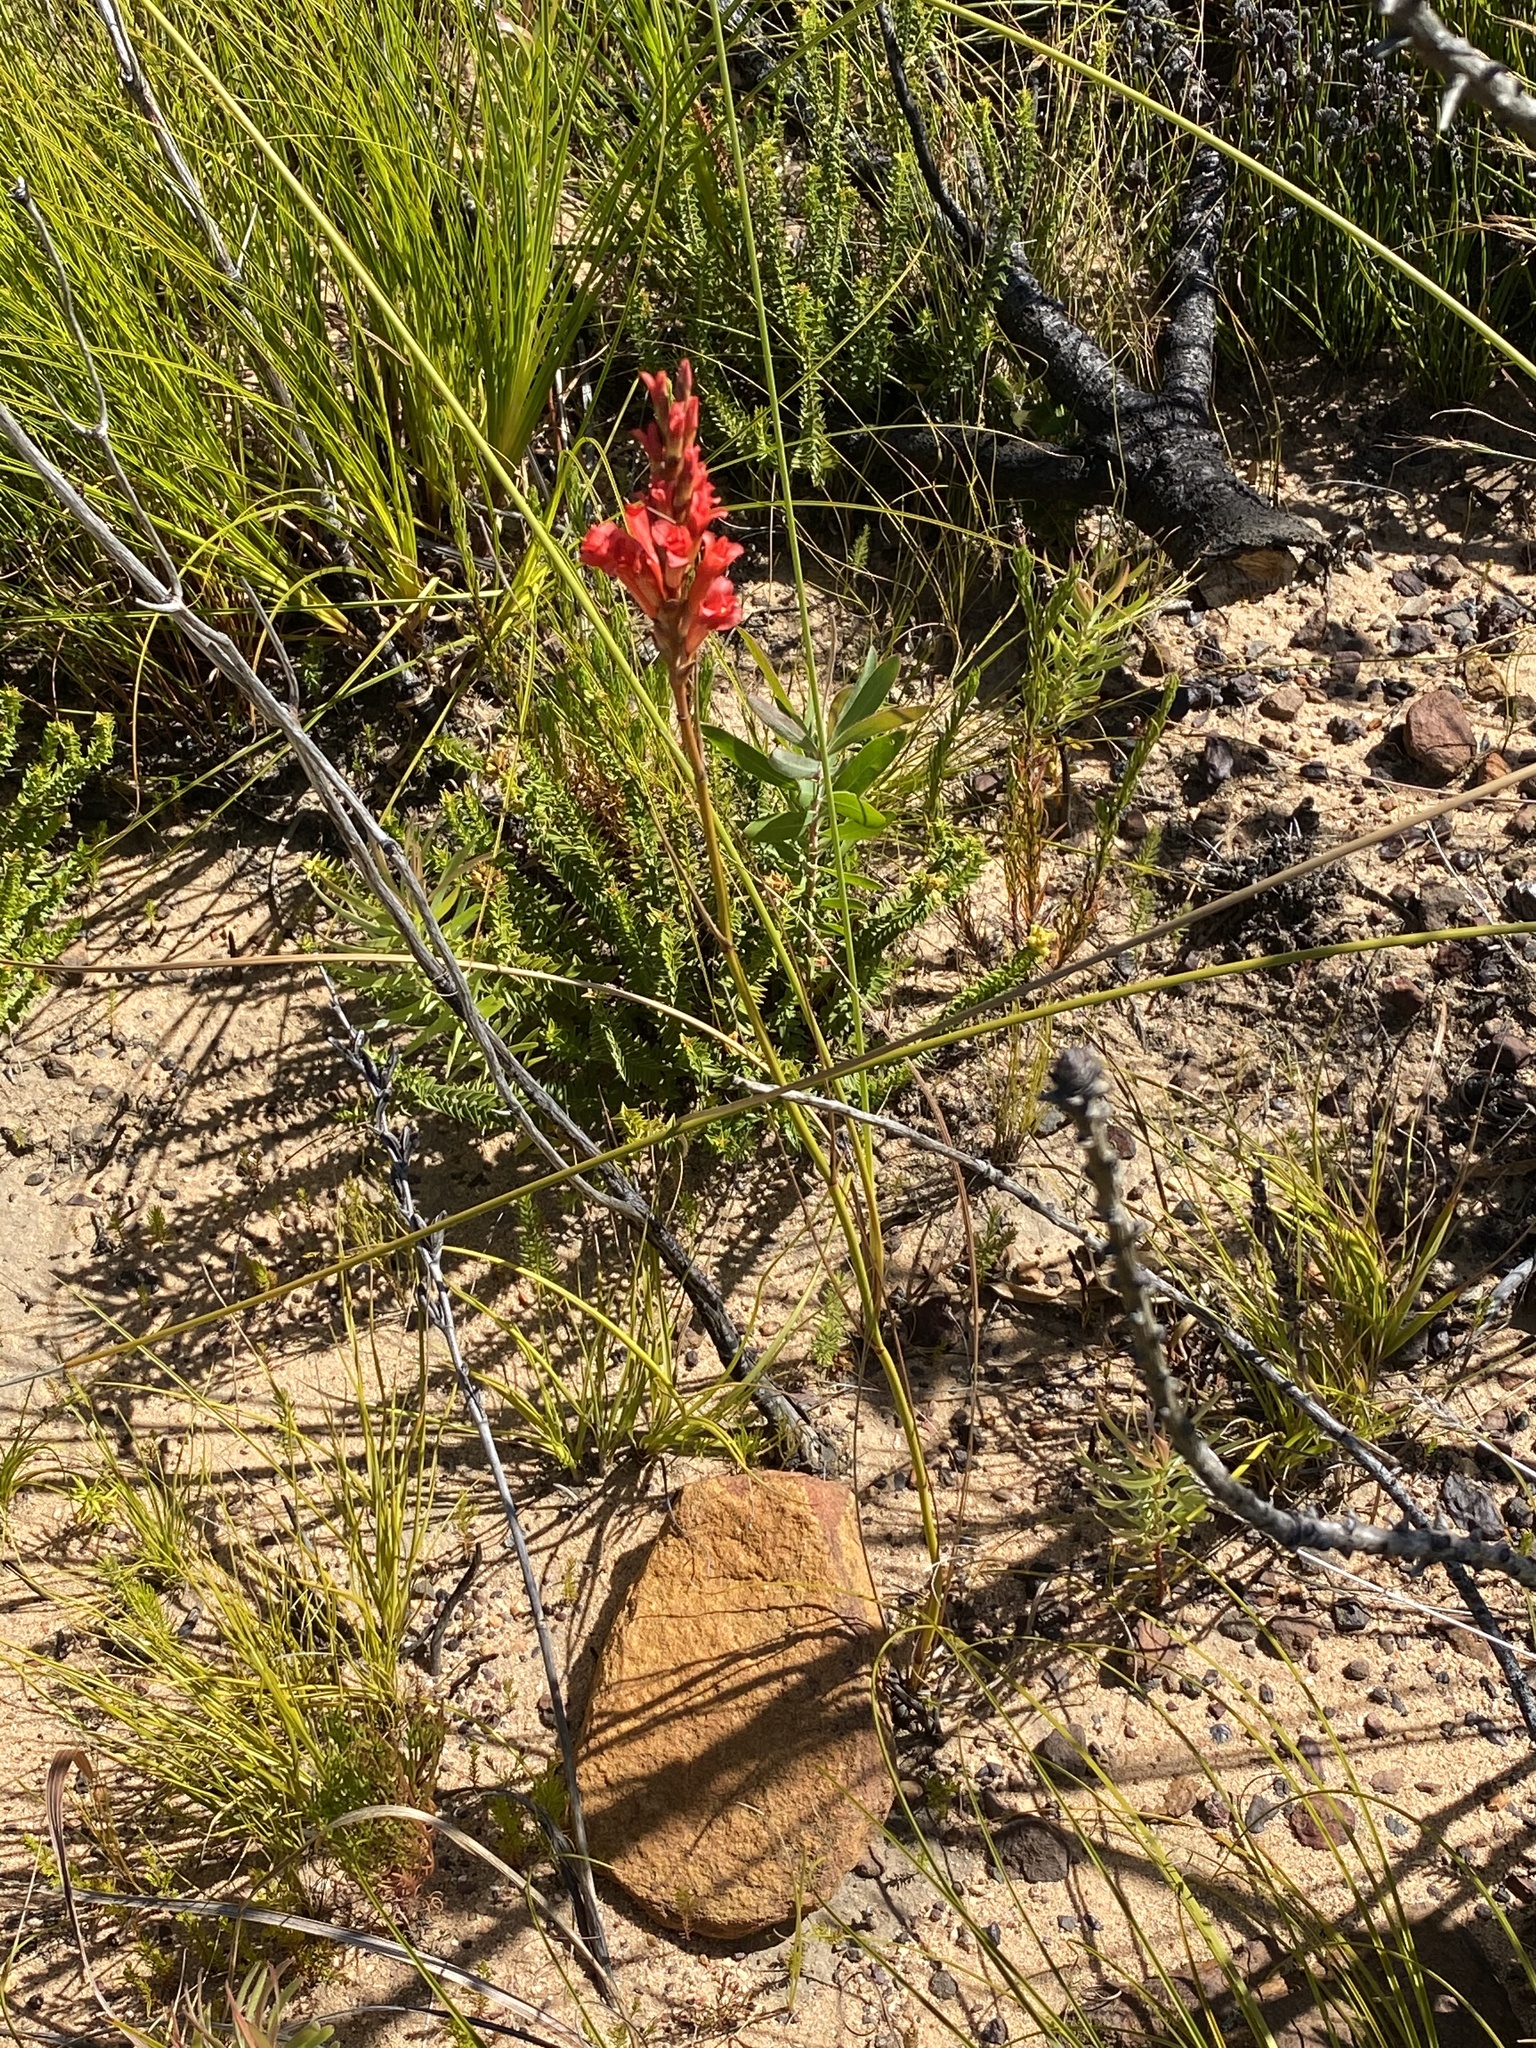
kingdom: Plantae
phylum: Tracheophyta
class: Liliopsida
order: Asparagales
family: Iridaceae
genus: Tritoniopsis
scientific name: Tritoniopsis triticea
